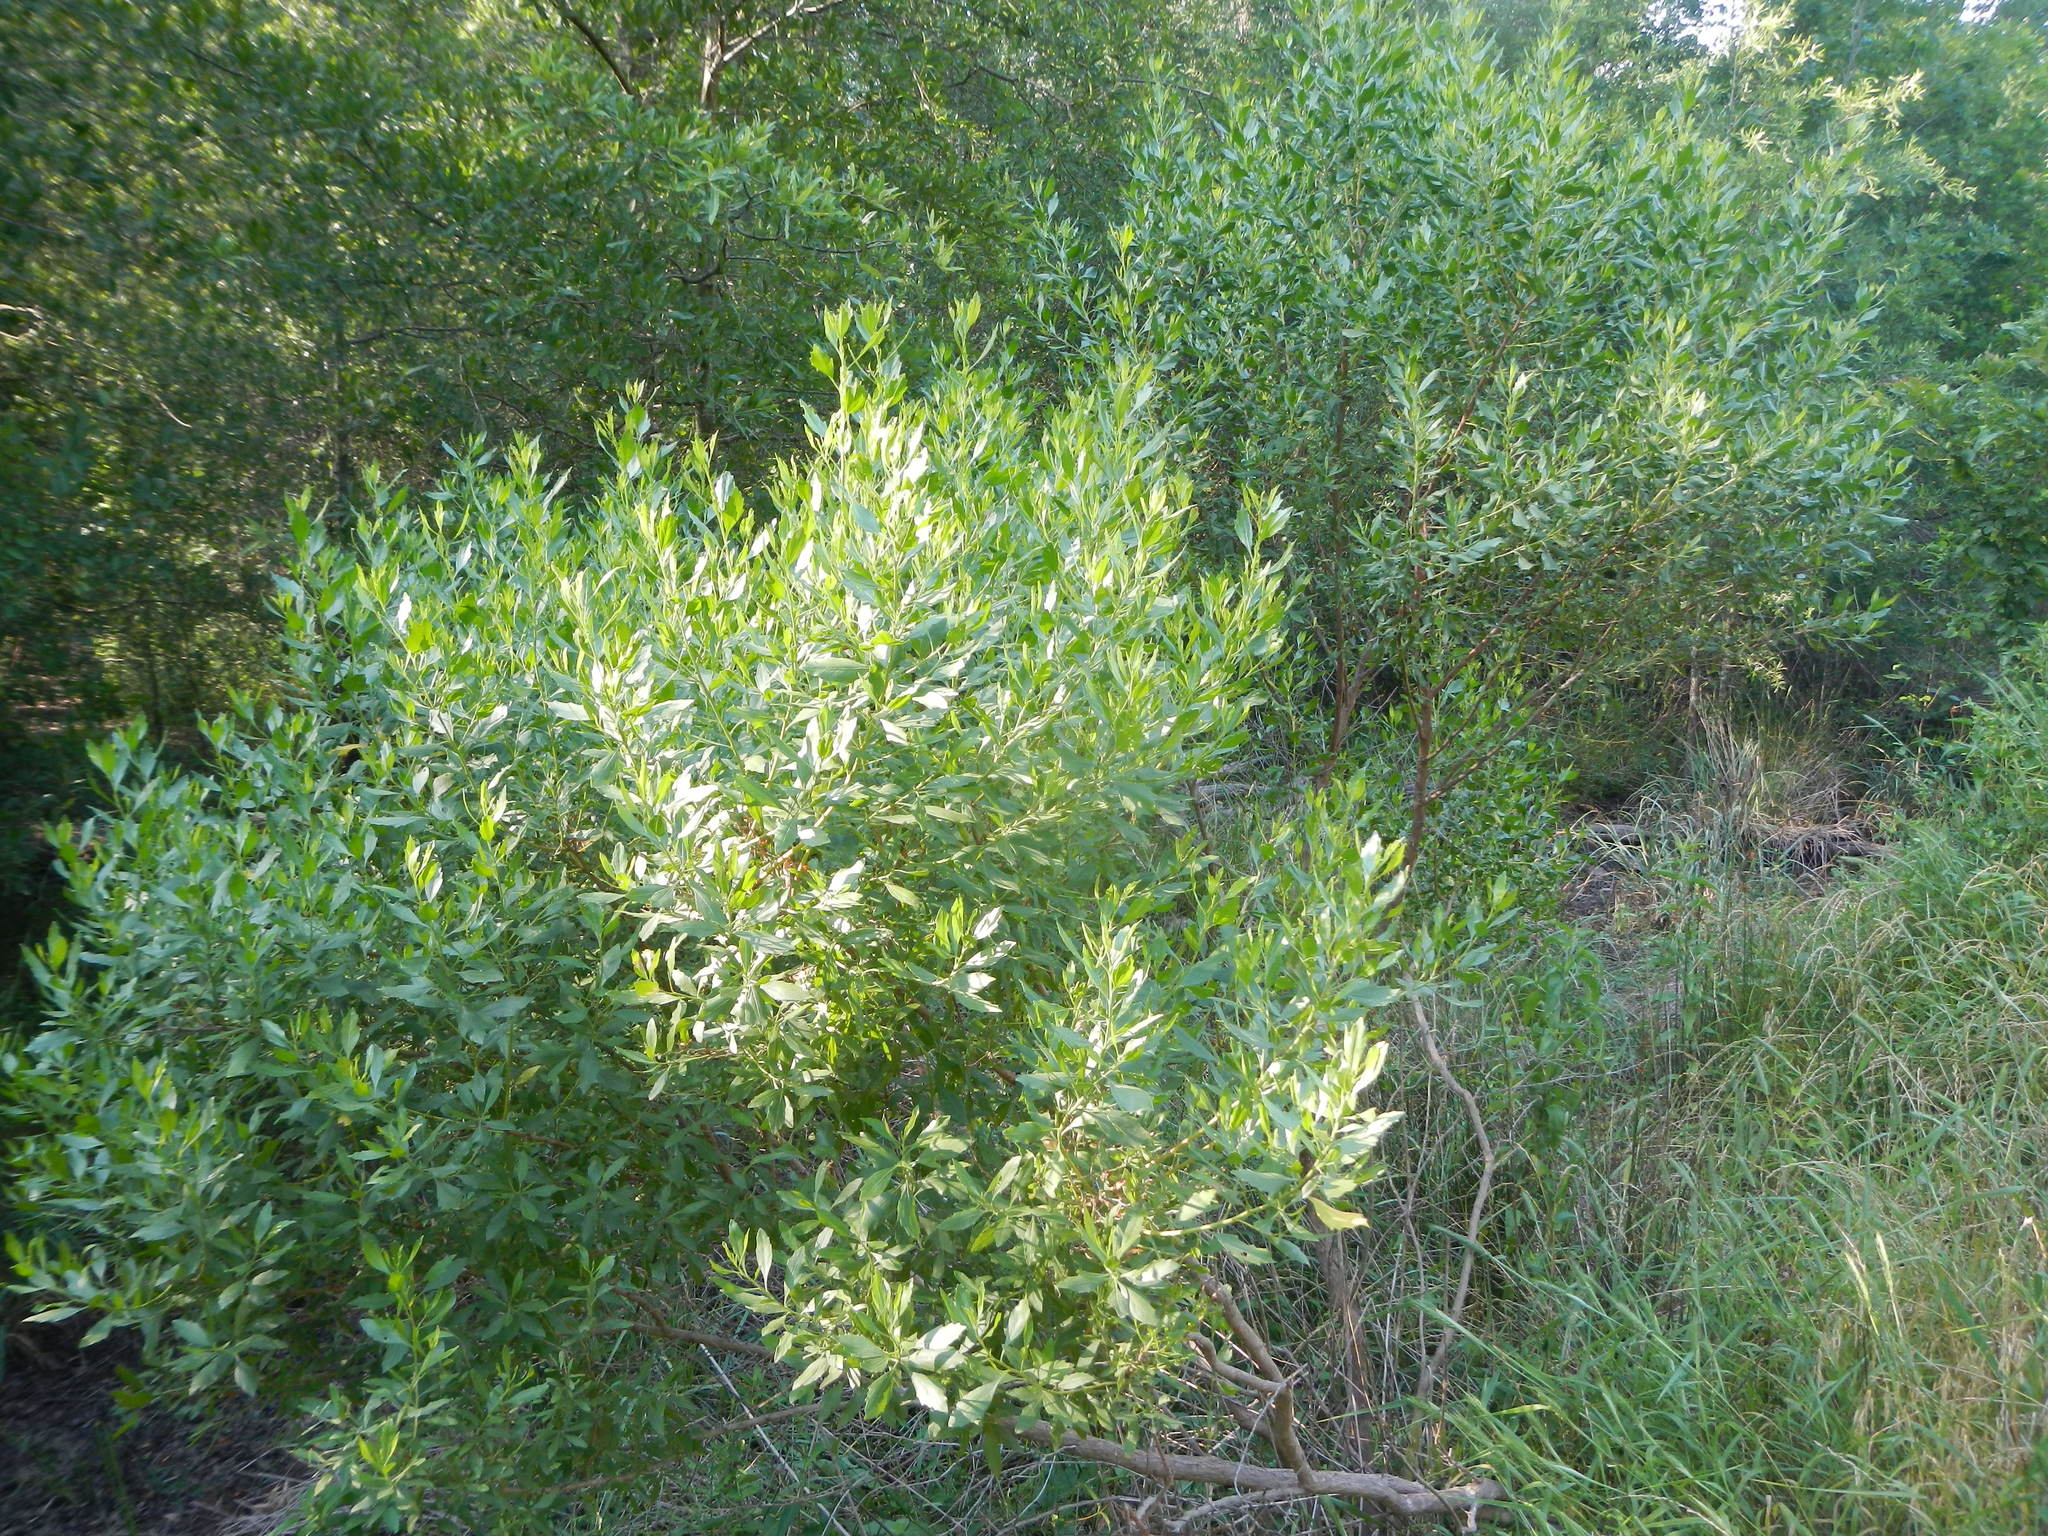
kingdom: Plantae
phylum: Tracheophyta
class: Magnoliopsida
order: Asterales
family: Asteraceae
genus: Baccharis
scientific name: Baccharis halimifolia
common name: Eastern baccharis
